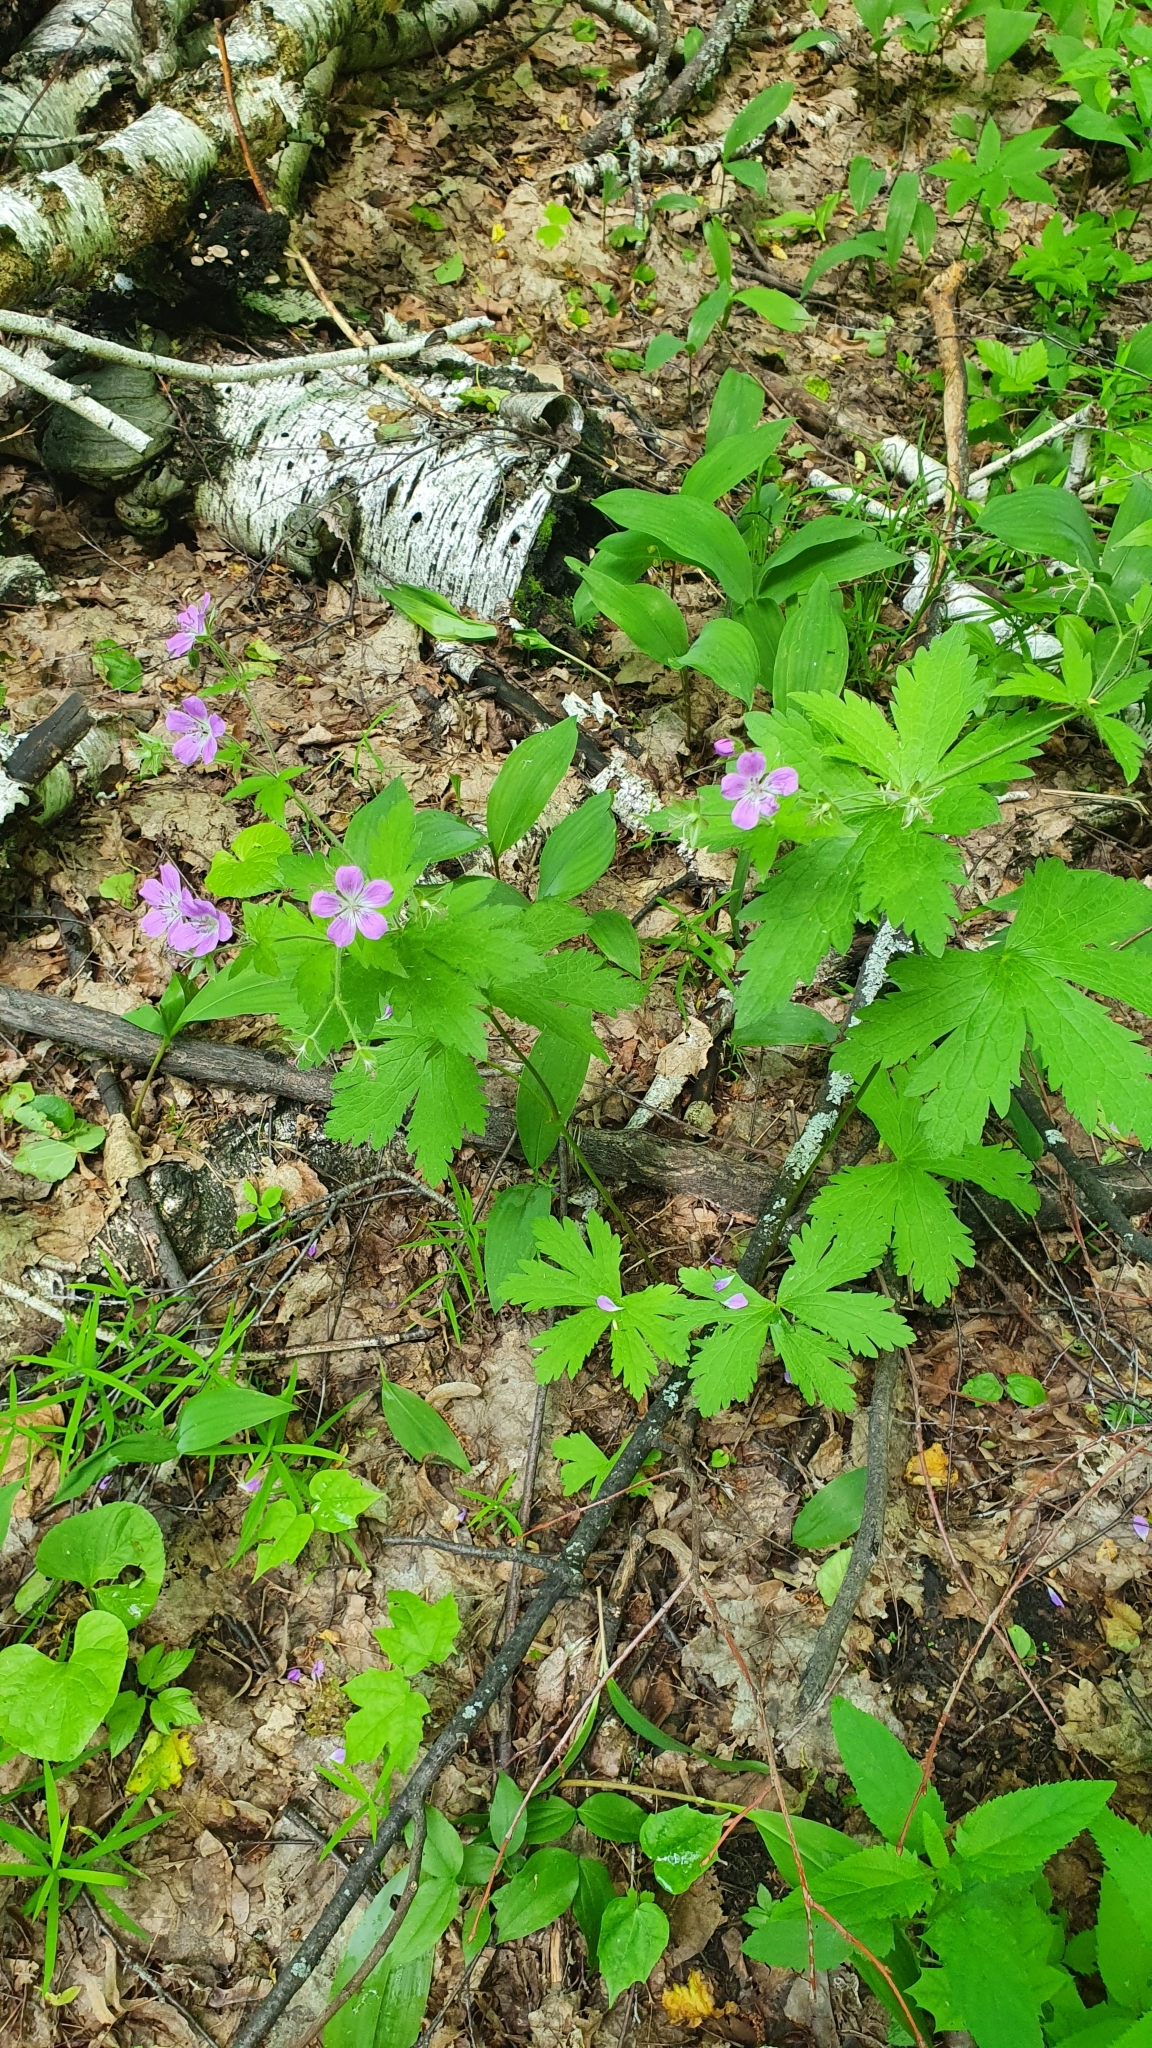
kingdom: Plantae
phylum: Tracheophyta
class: Magnoliopsida
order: Geraniales
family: Geraniaceae
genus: Geranium
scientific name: Geranium sylvaticum
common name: Wood crane's-bill
